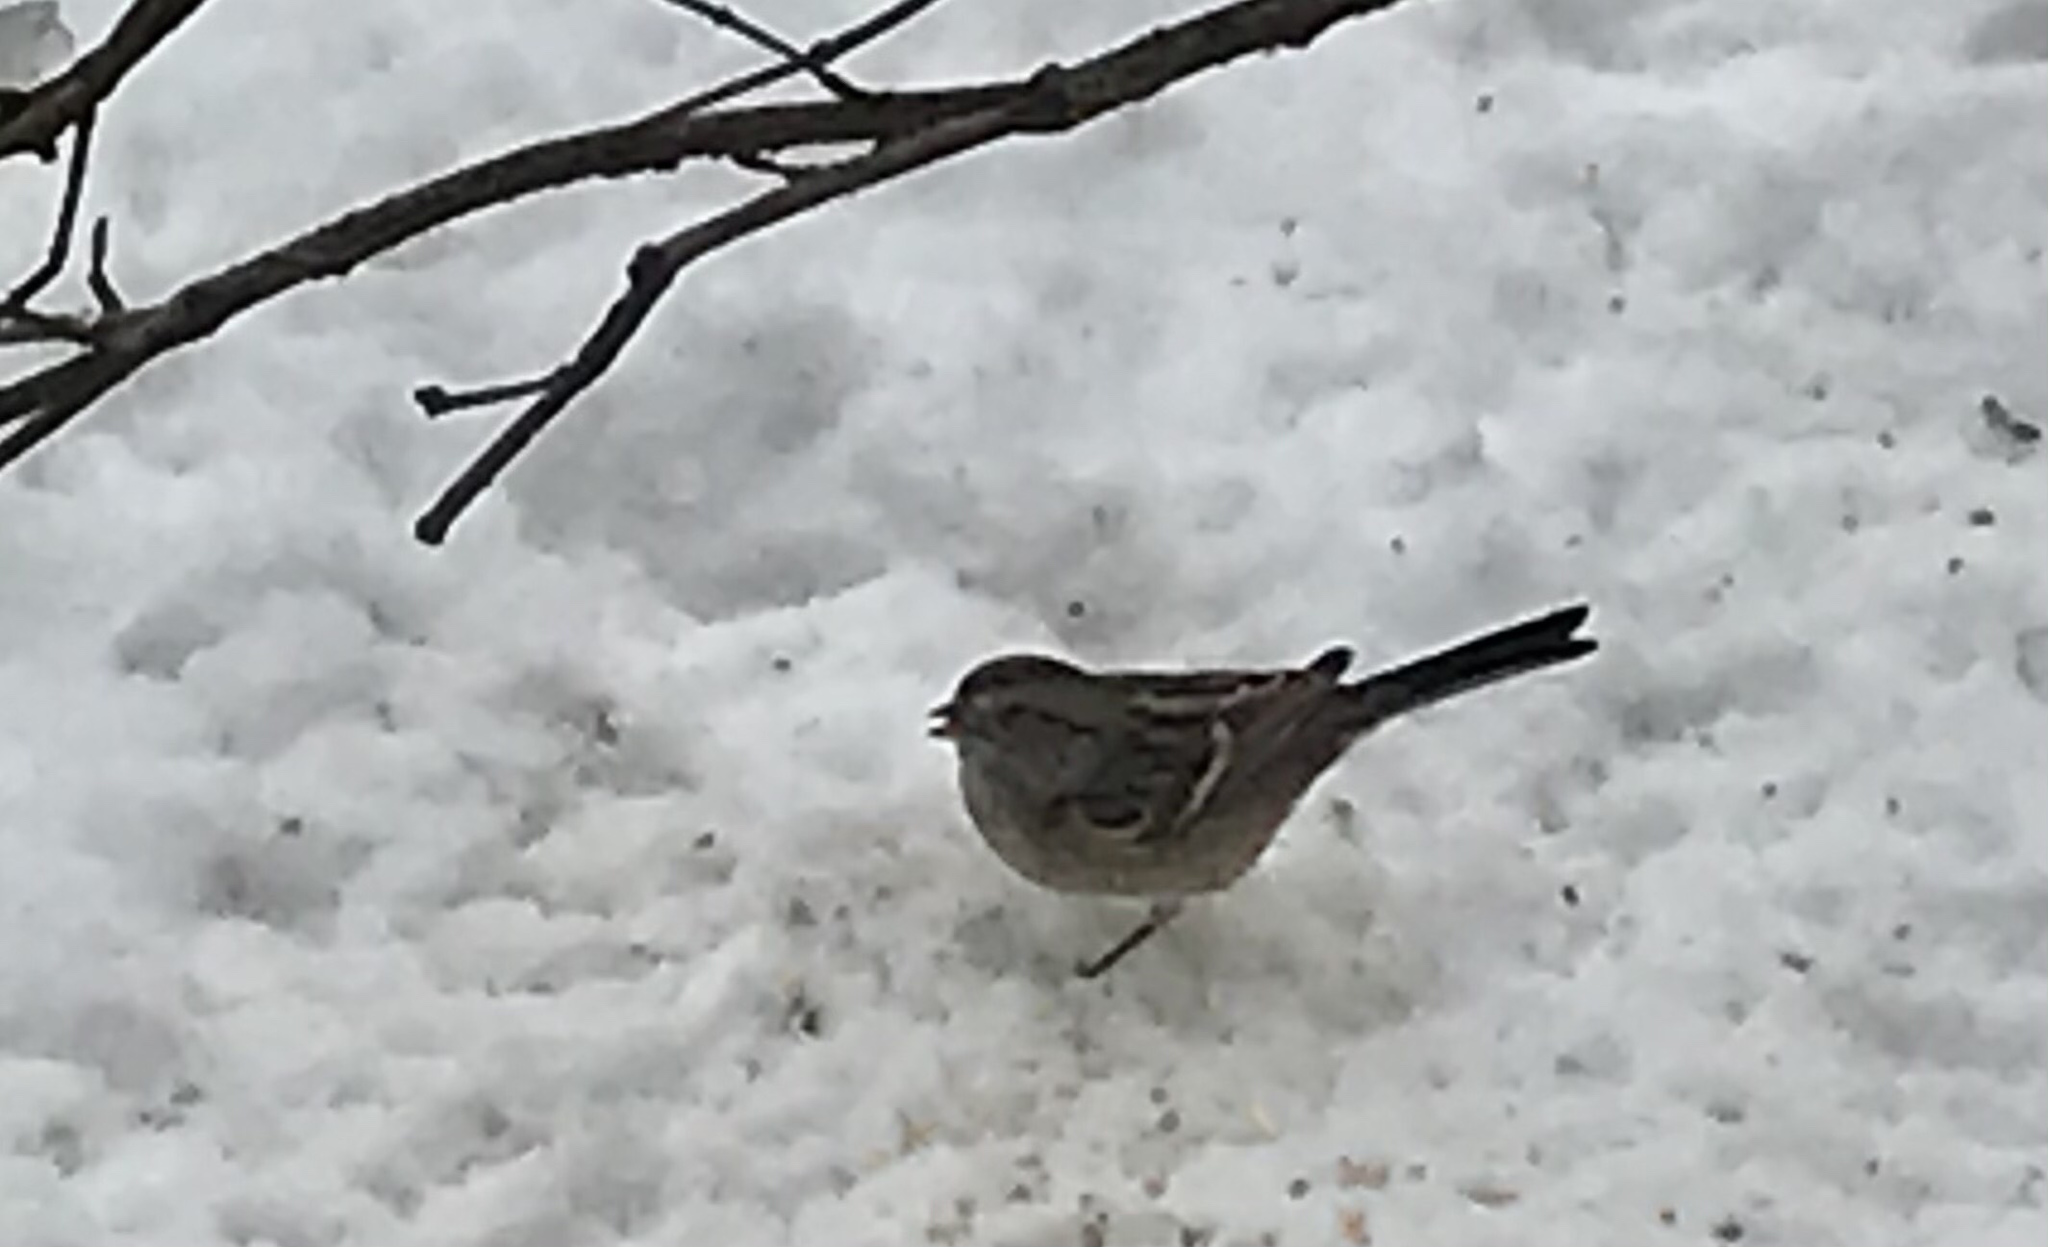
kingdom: Animalia
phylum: Chordata
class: Aves
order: Passeriformes
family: Passerellidae
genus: Spizelloides
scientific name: Spizelloides arborea
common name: American tree sparrow
